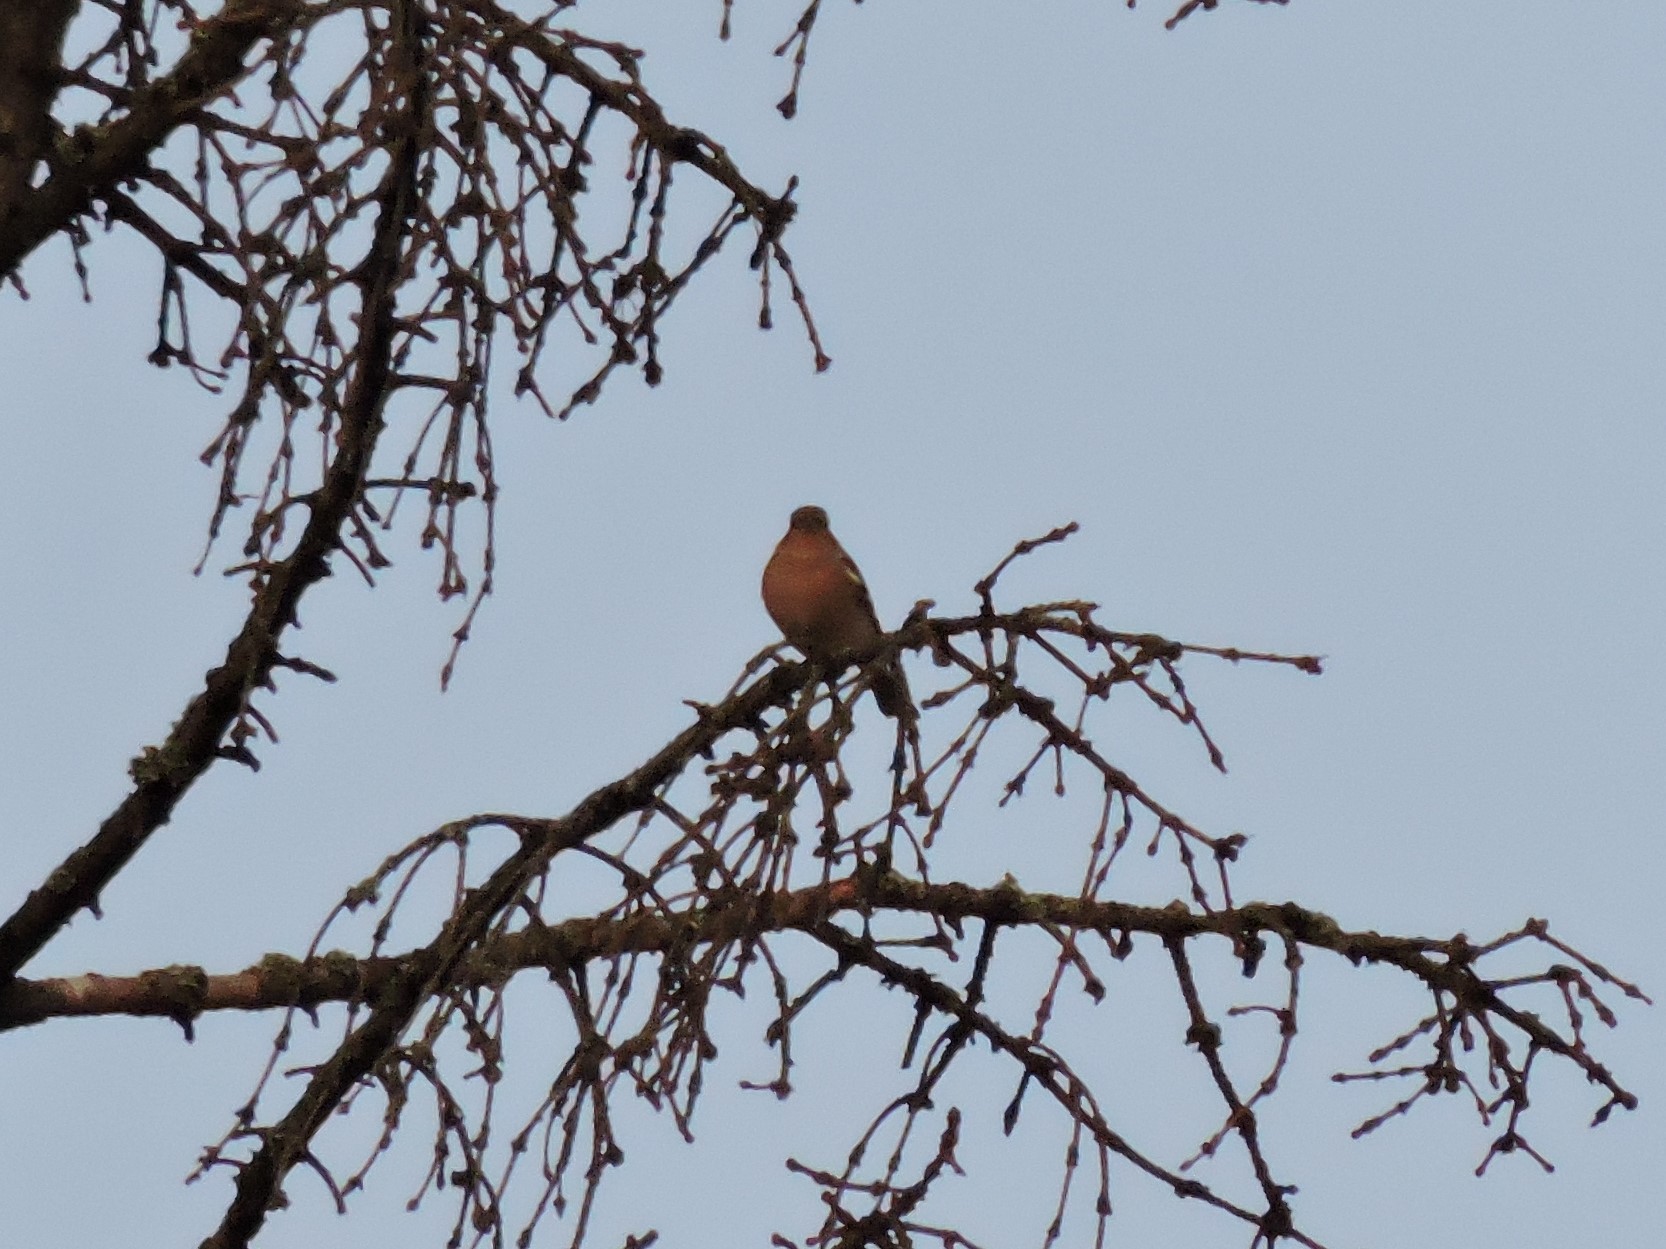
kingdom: Animalia
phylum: Chordata
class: Aves
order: Passeriformes
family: Fringillidae
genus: Fringilla
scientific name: Fringilla coelebs
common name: Common chaffinch
